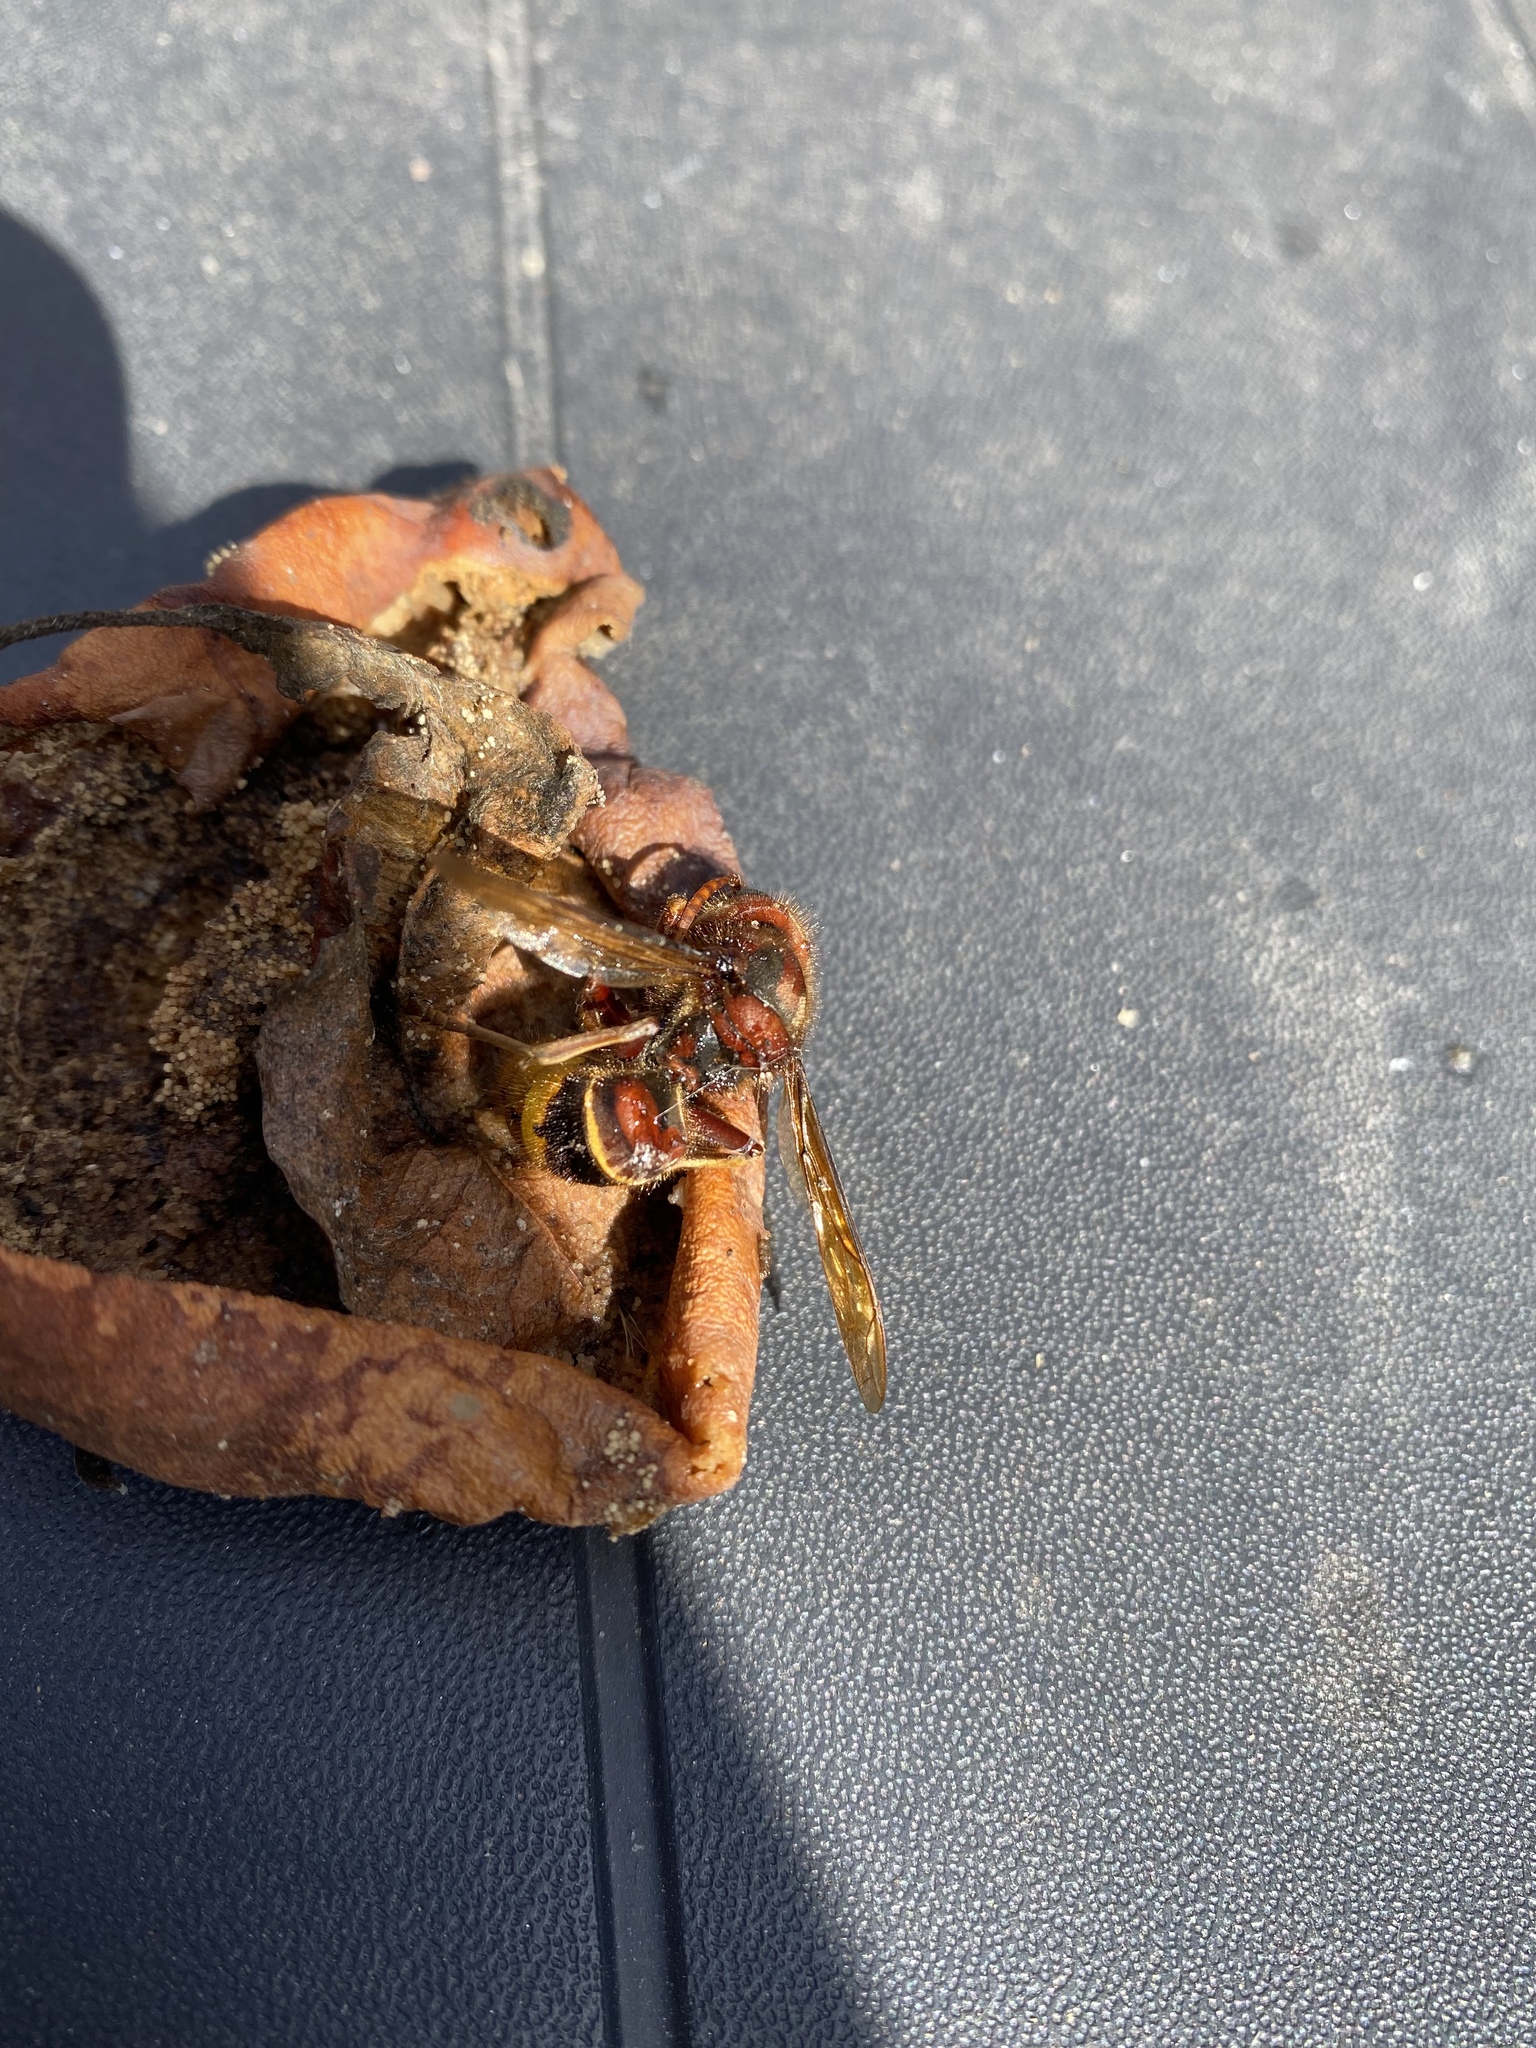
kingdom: Animalia
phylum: Arthropoda
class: Insecta
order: Hymenoptera
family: Vespidae
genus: Vespa
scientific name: Vespa crabro
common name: Hornet
